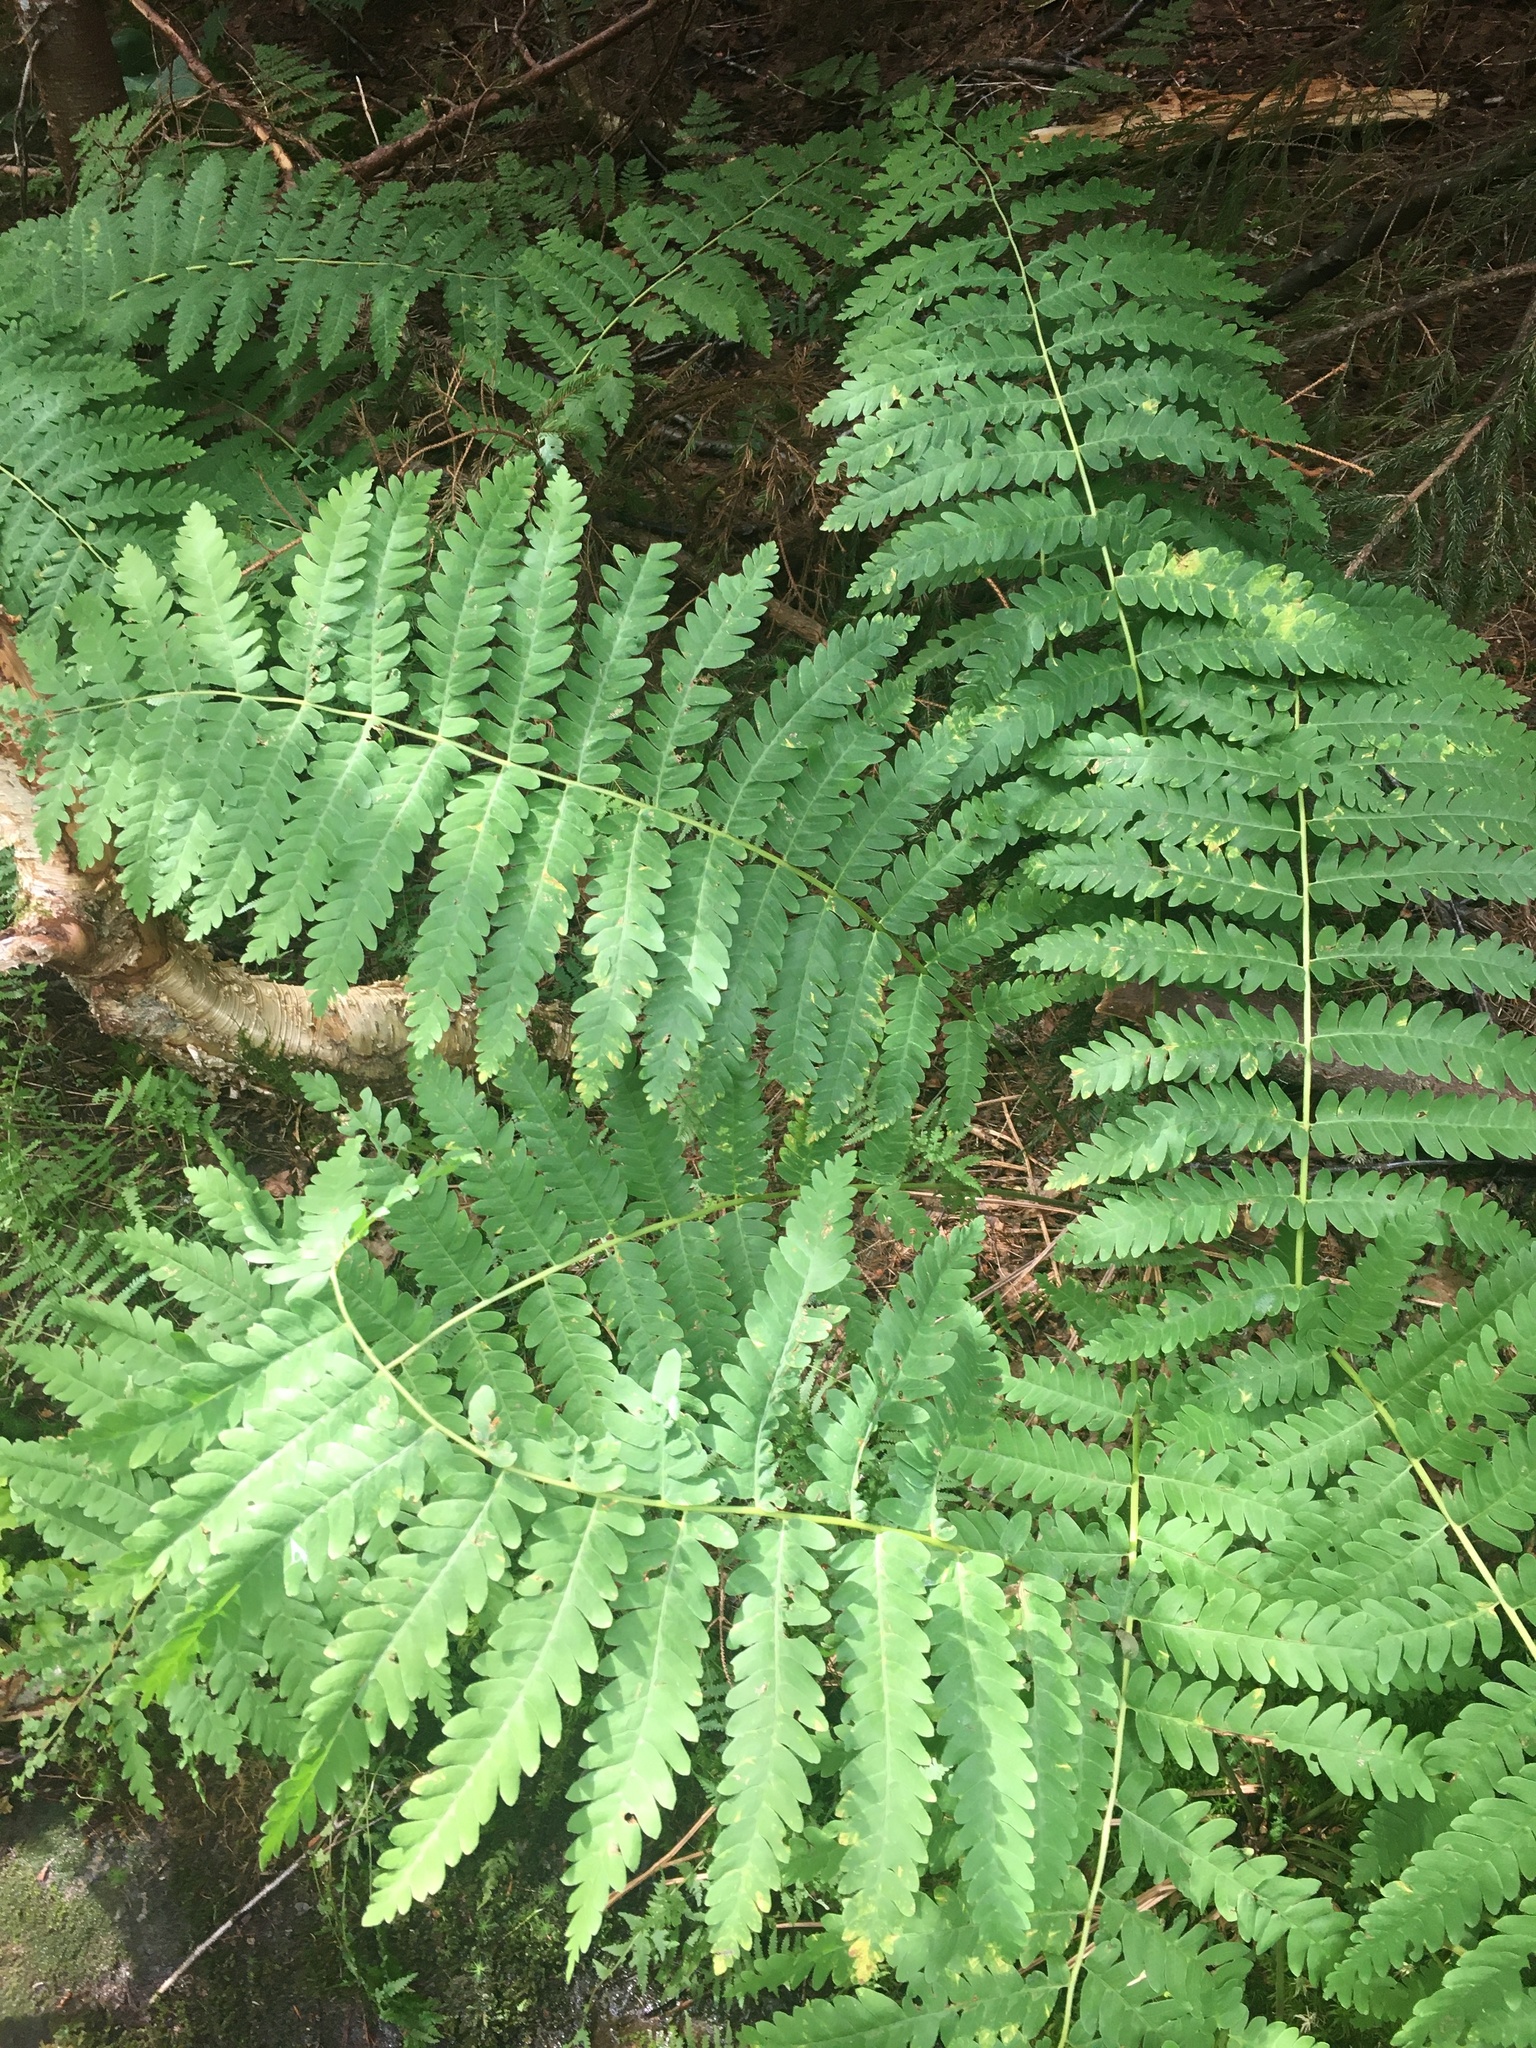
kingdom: Plantae
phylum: Tracheophyta
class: Polypodiopsida
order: Osmundales
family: Osmundaceae
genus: Claytosmunda
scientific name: Claytosmunda claytoniana
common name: Clayton's fern
